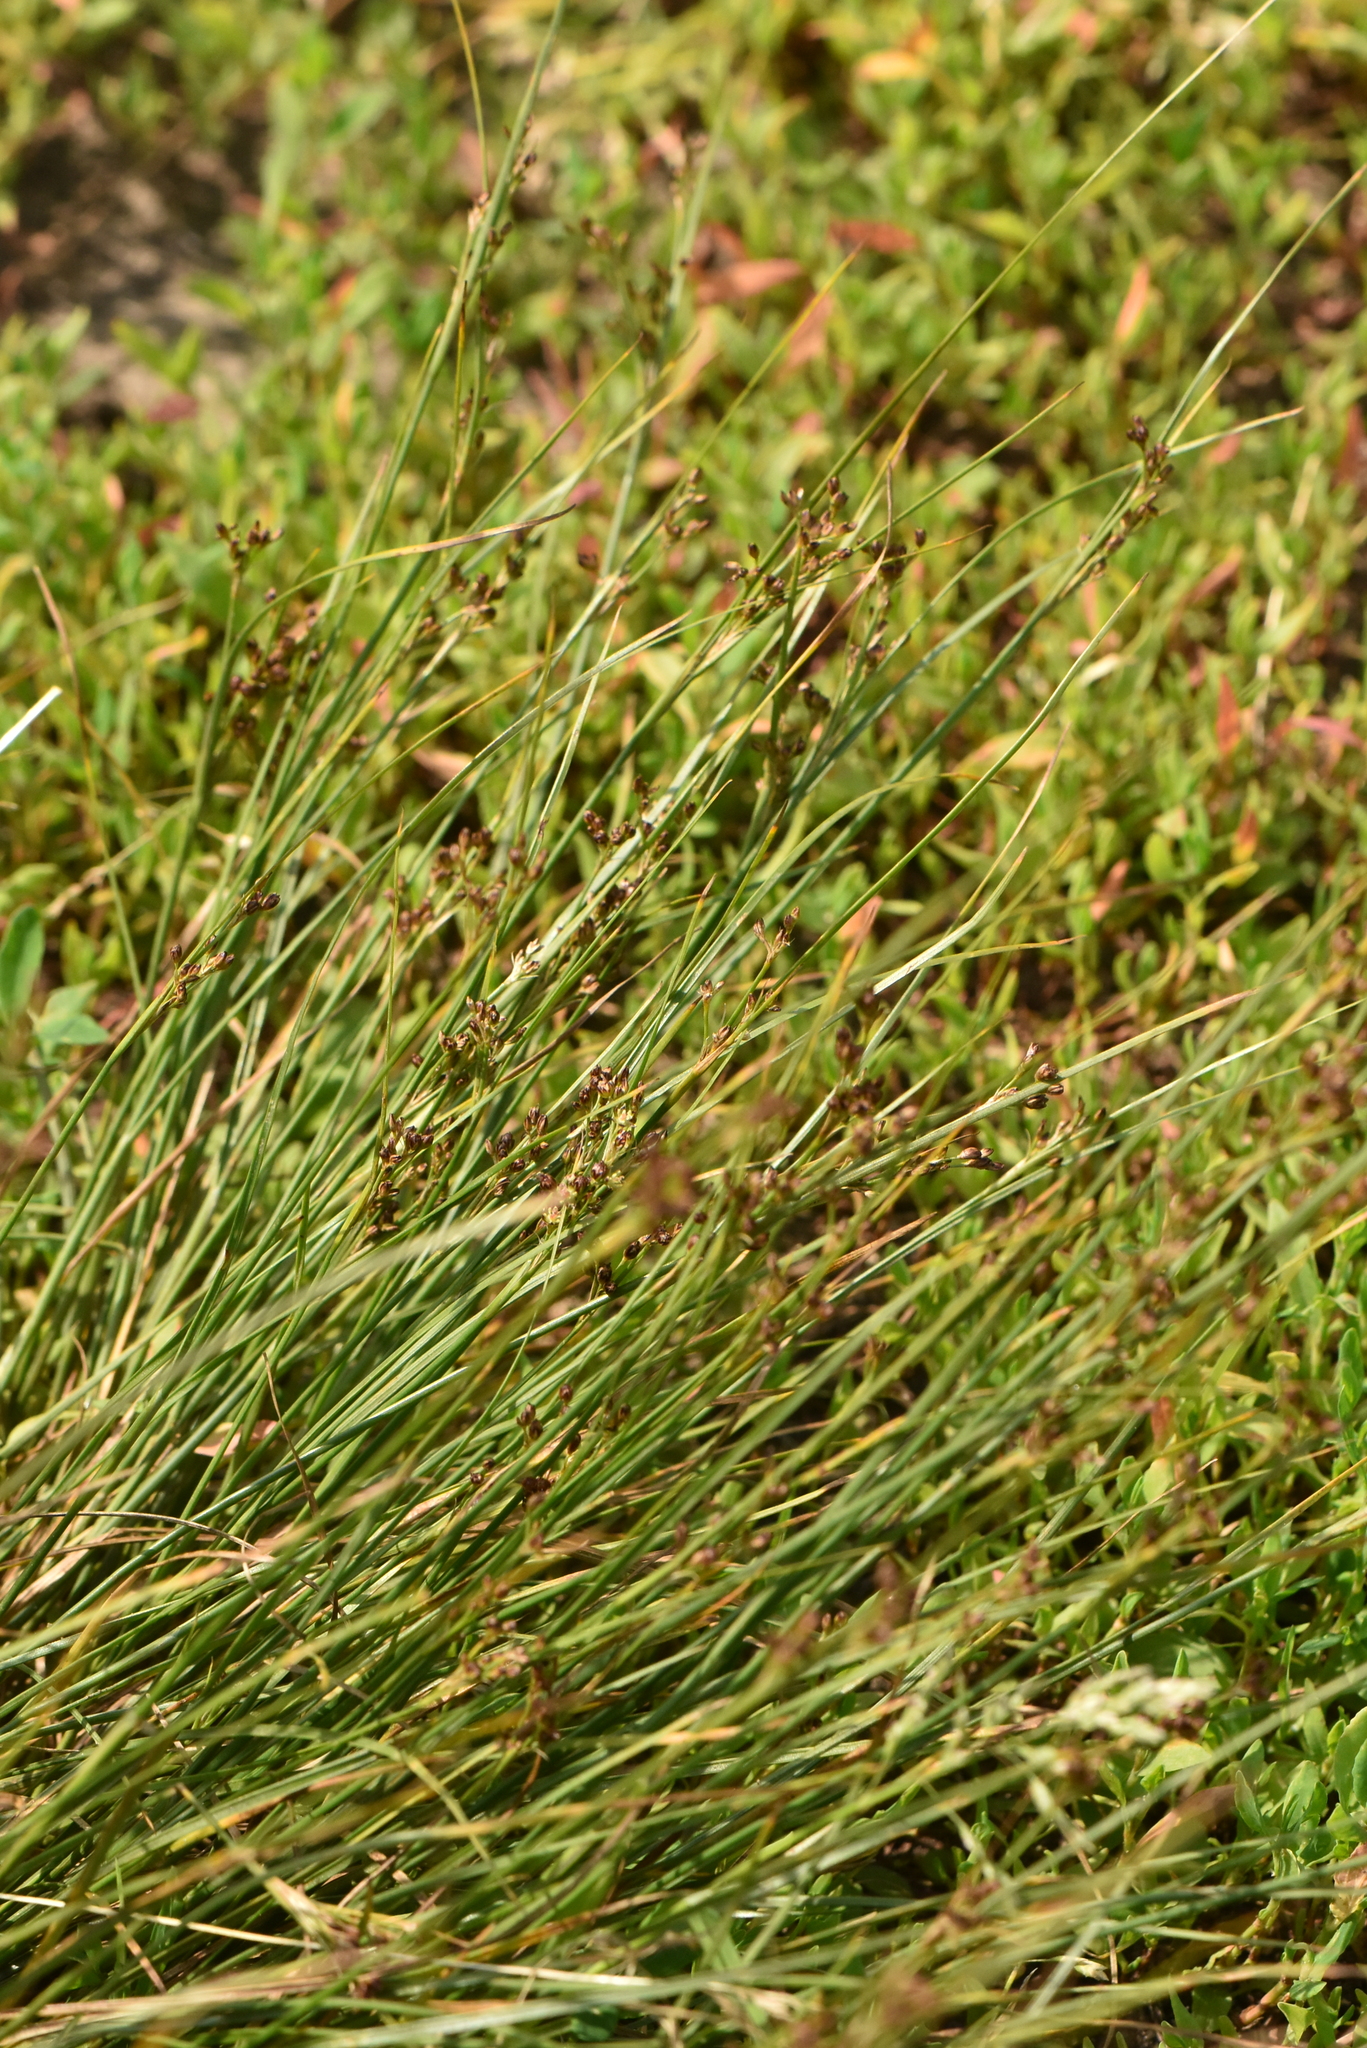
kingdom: Plantae
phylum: Tracheophyta
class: Liliopsida
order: Poales
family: Juncaceae
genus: Juncus
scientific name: Juncus compressus
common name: Round-fruited rush
